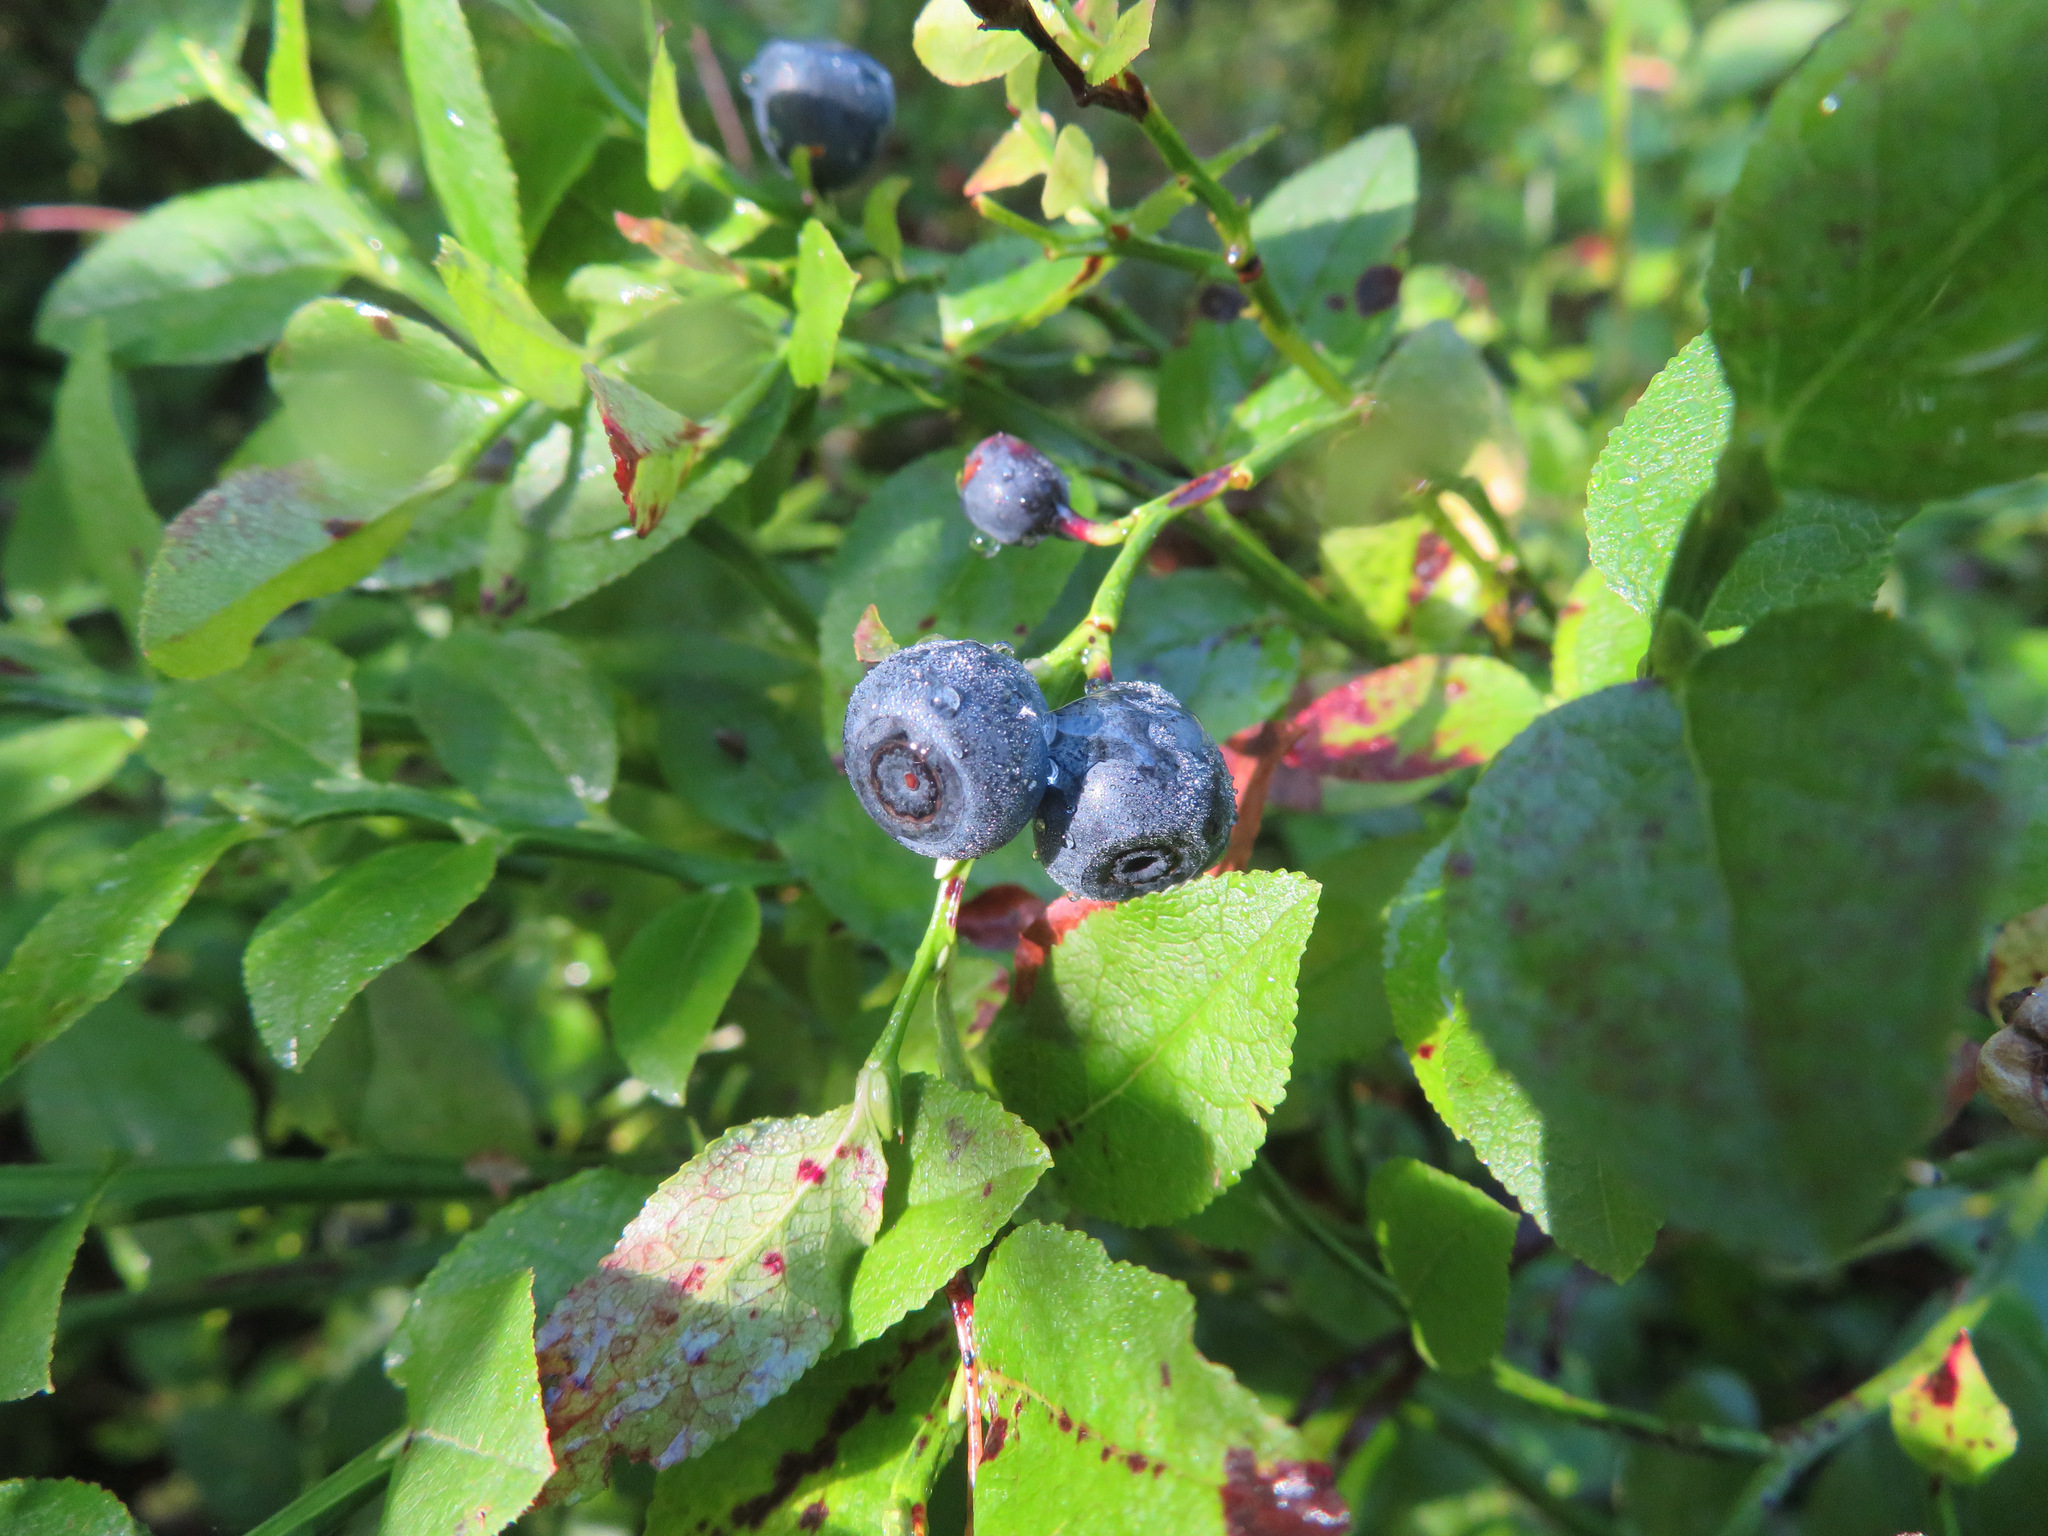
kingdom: Plantae
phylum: Tracheophyta
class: Magnoliopsida
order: Ericales
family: Ericaceae
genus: Vaccinium
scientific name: Vaccinium myrtillus
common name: Bilberry
